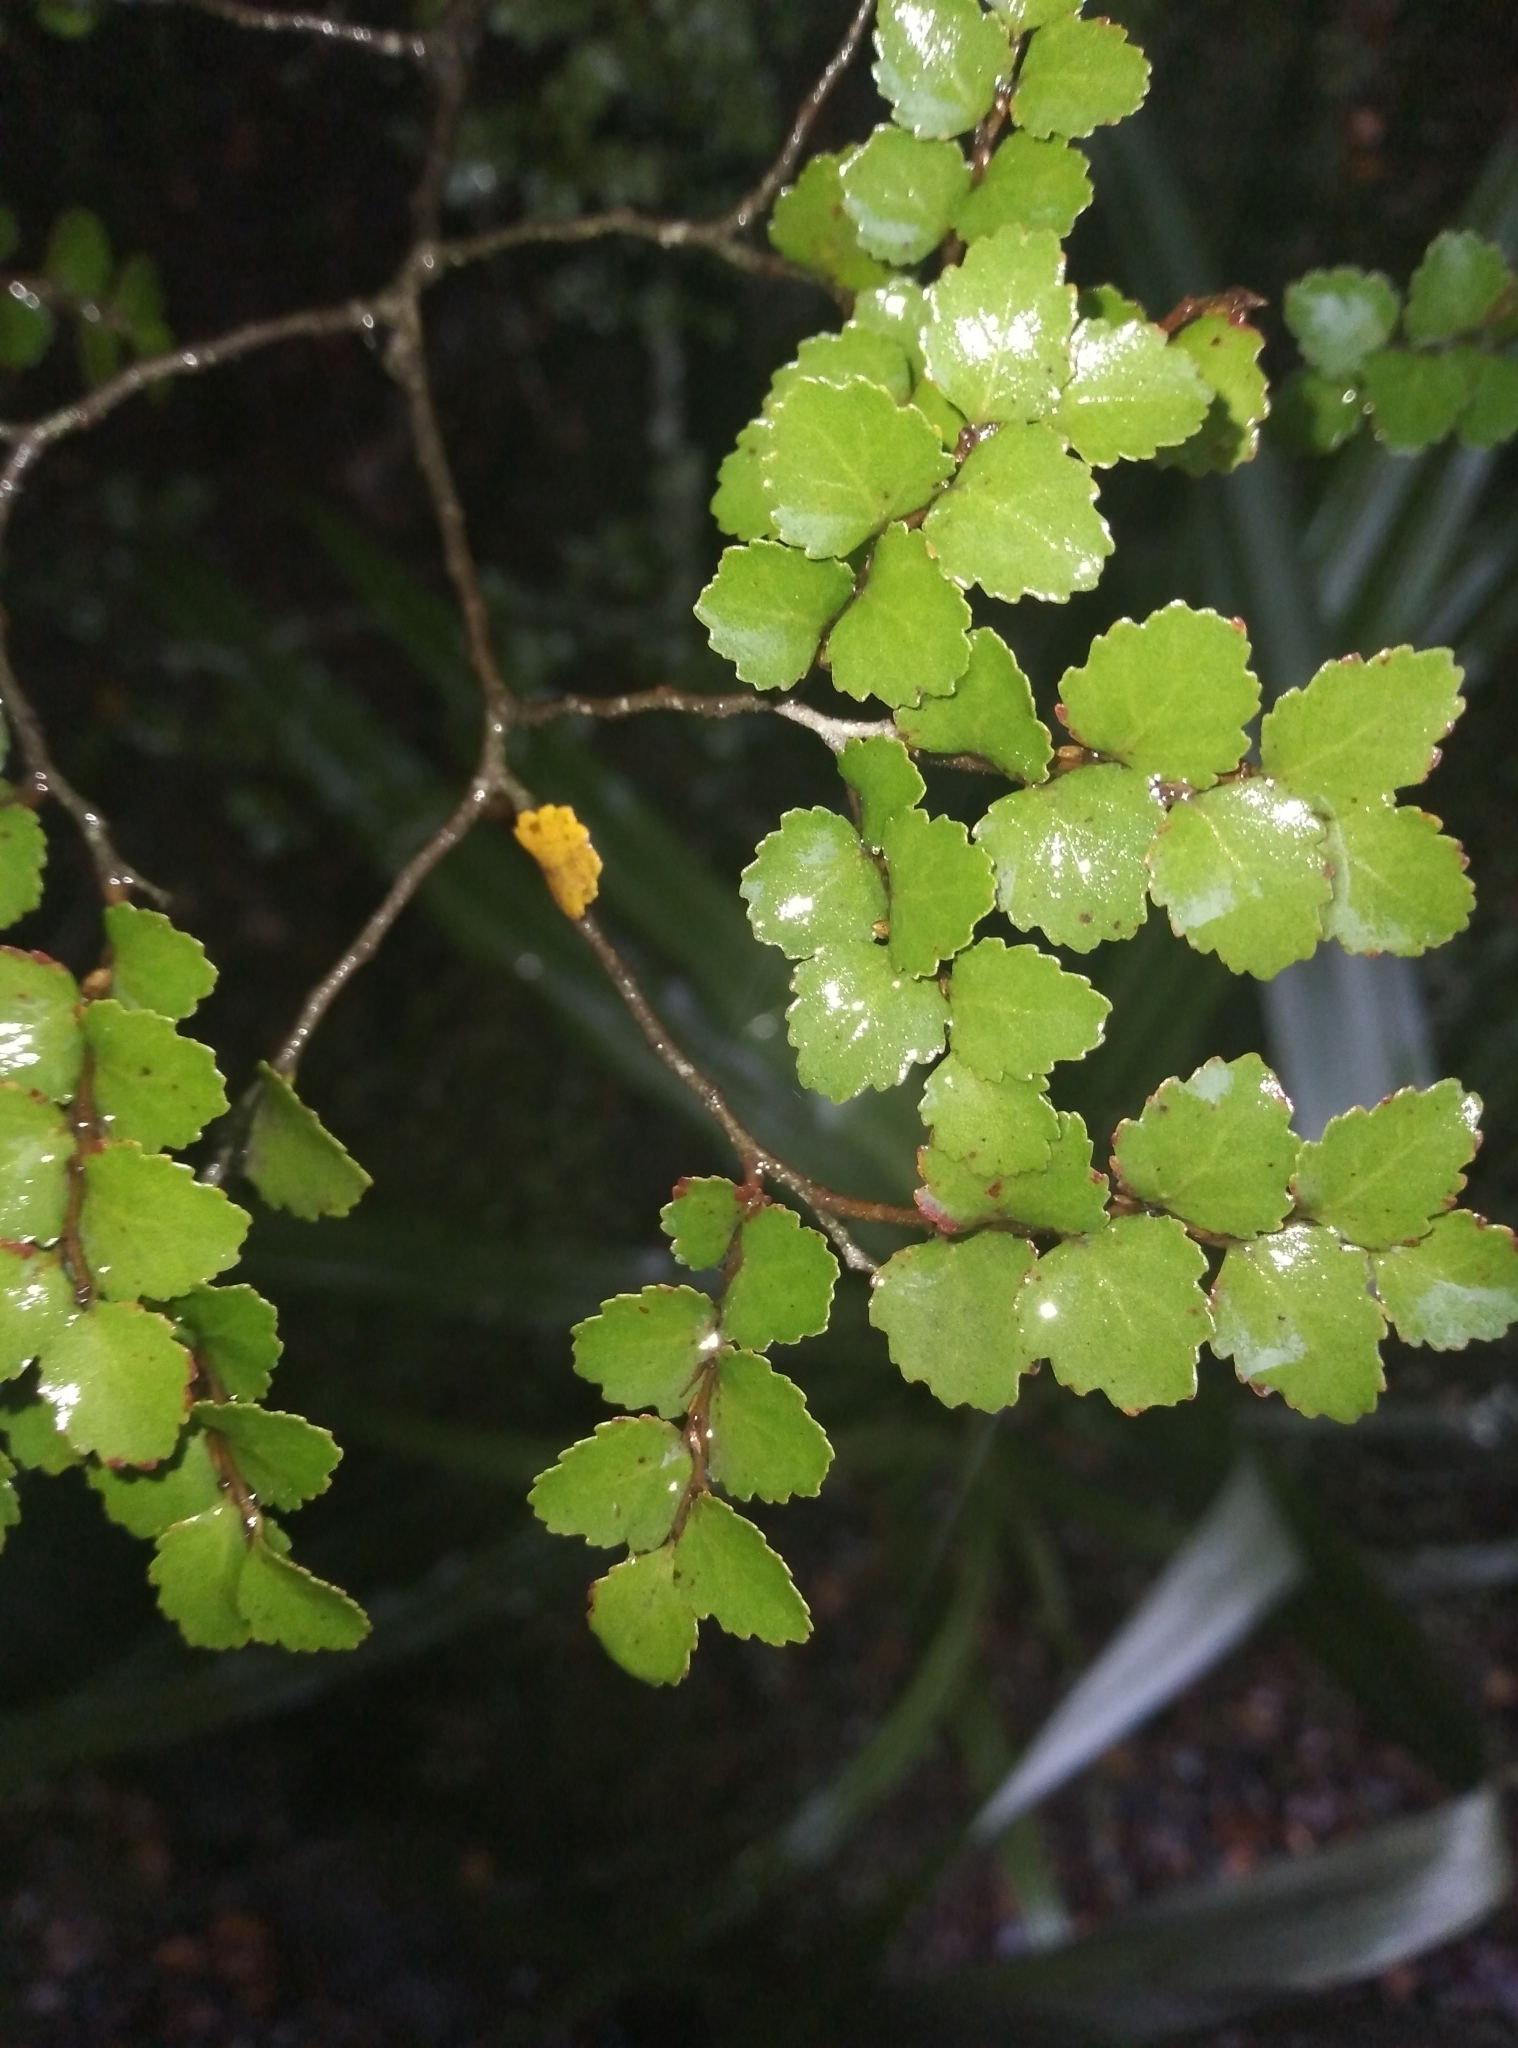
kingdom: Plantae
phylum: Tracheophyta
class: Magnoliopsida
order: Fagales
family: Nothofagaceae
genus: Nothofagus
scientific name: Nothofagus menziesii
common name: Silver beech
